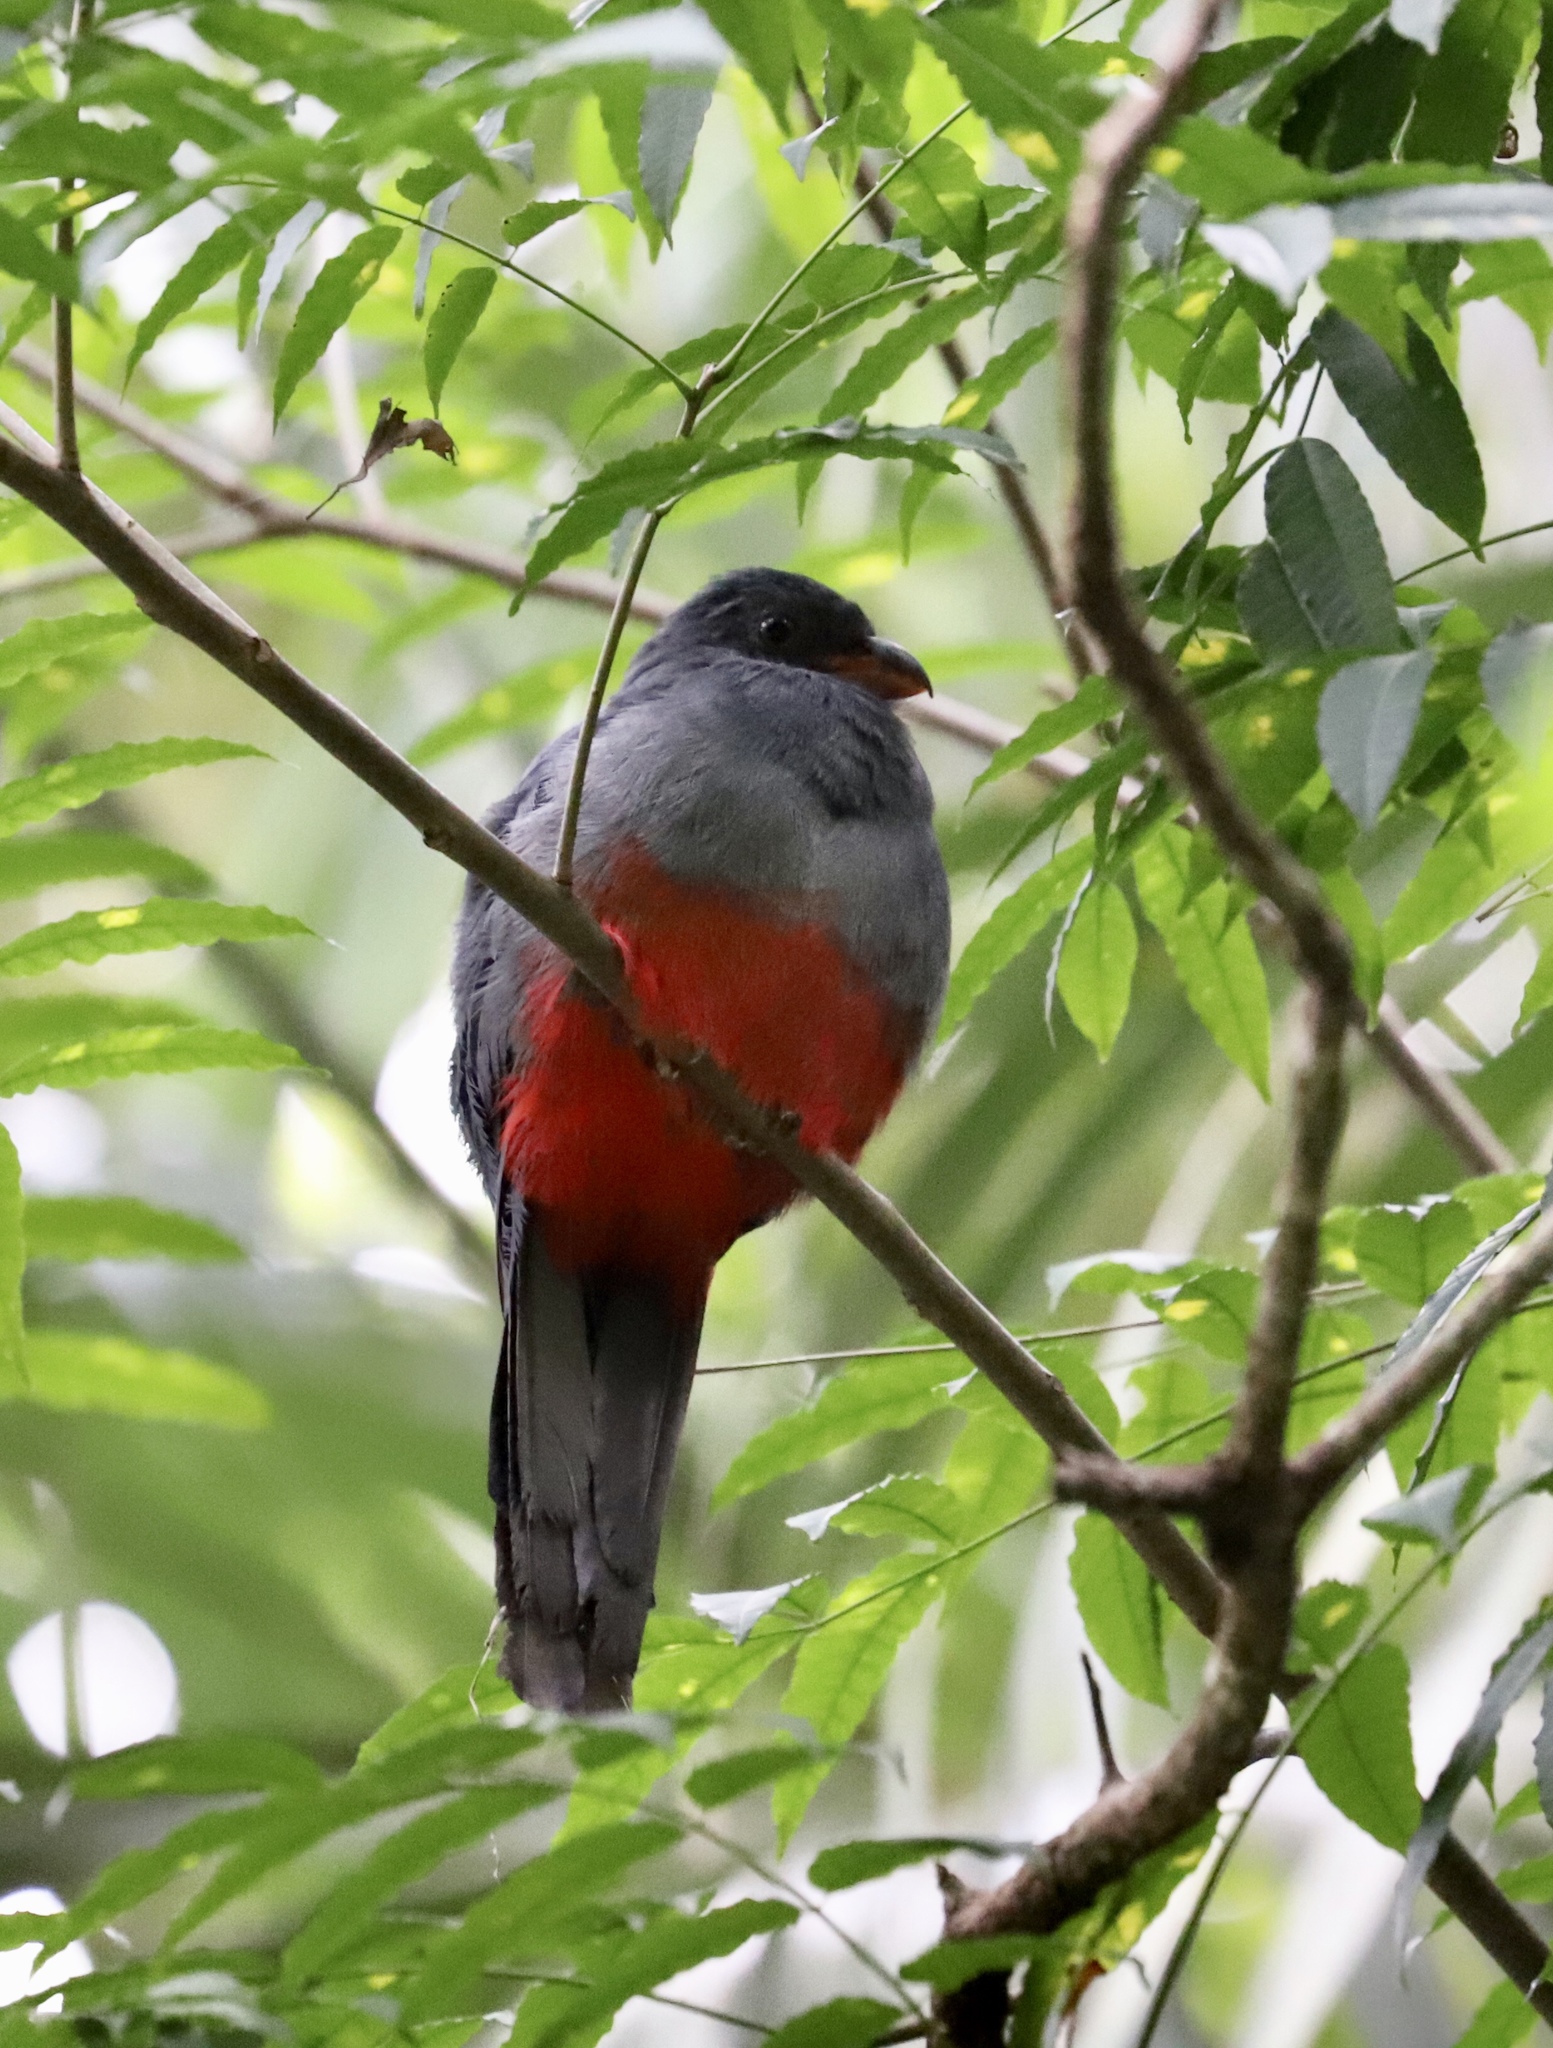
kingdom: Animalia
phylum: Chordata
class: Aves
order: Trogoniformes
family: Trogonidae
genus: Trogon
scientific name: Trogon massena
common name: Slaty-tailed trogon
